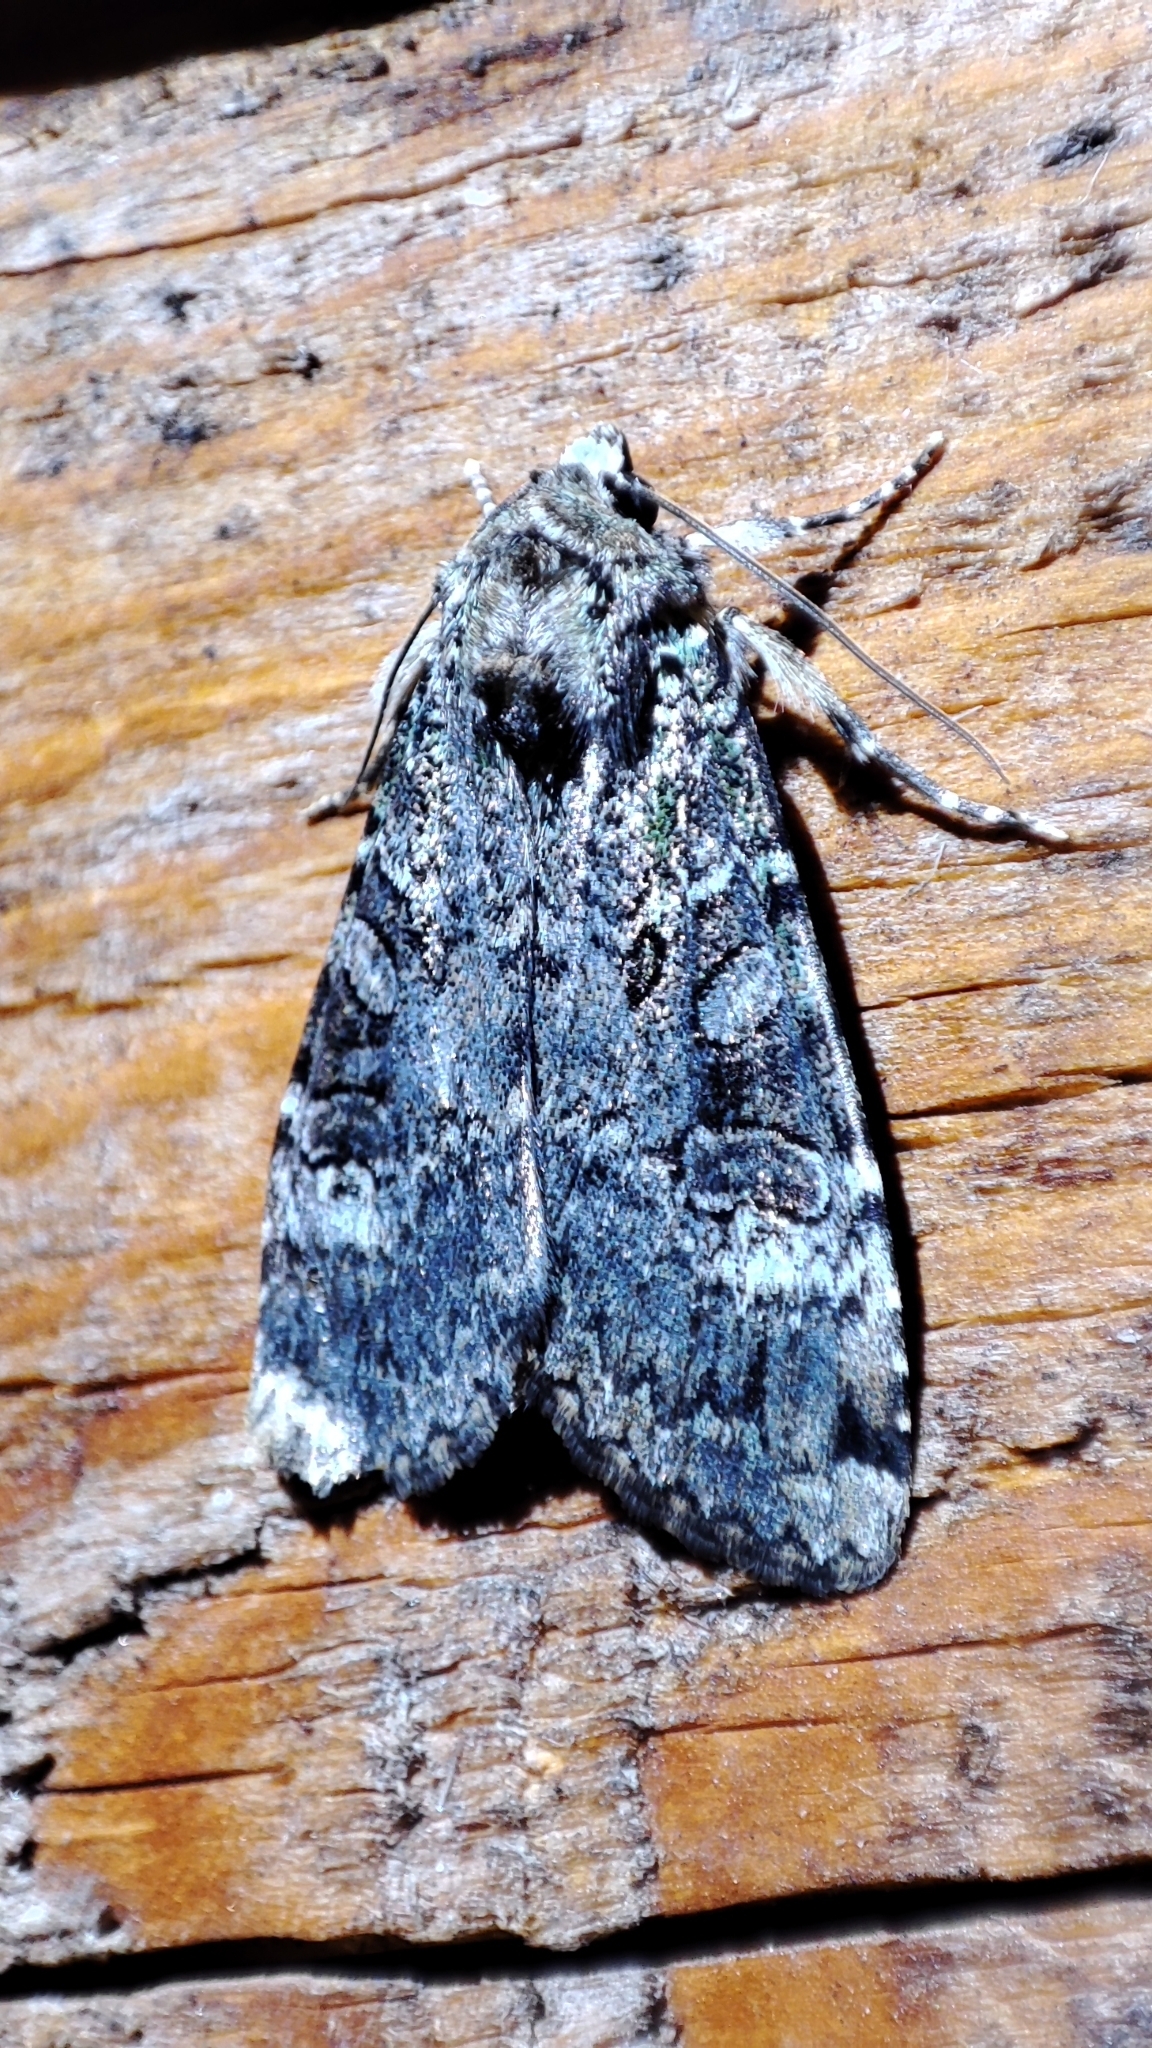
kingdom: Animalia
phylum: Arthropoda
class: Insecta
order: Lepidoptera
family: Noctuidae
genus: Anaplectoides
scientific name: Anaplectoides prasina
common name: Green arches
